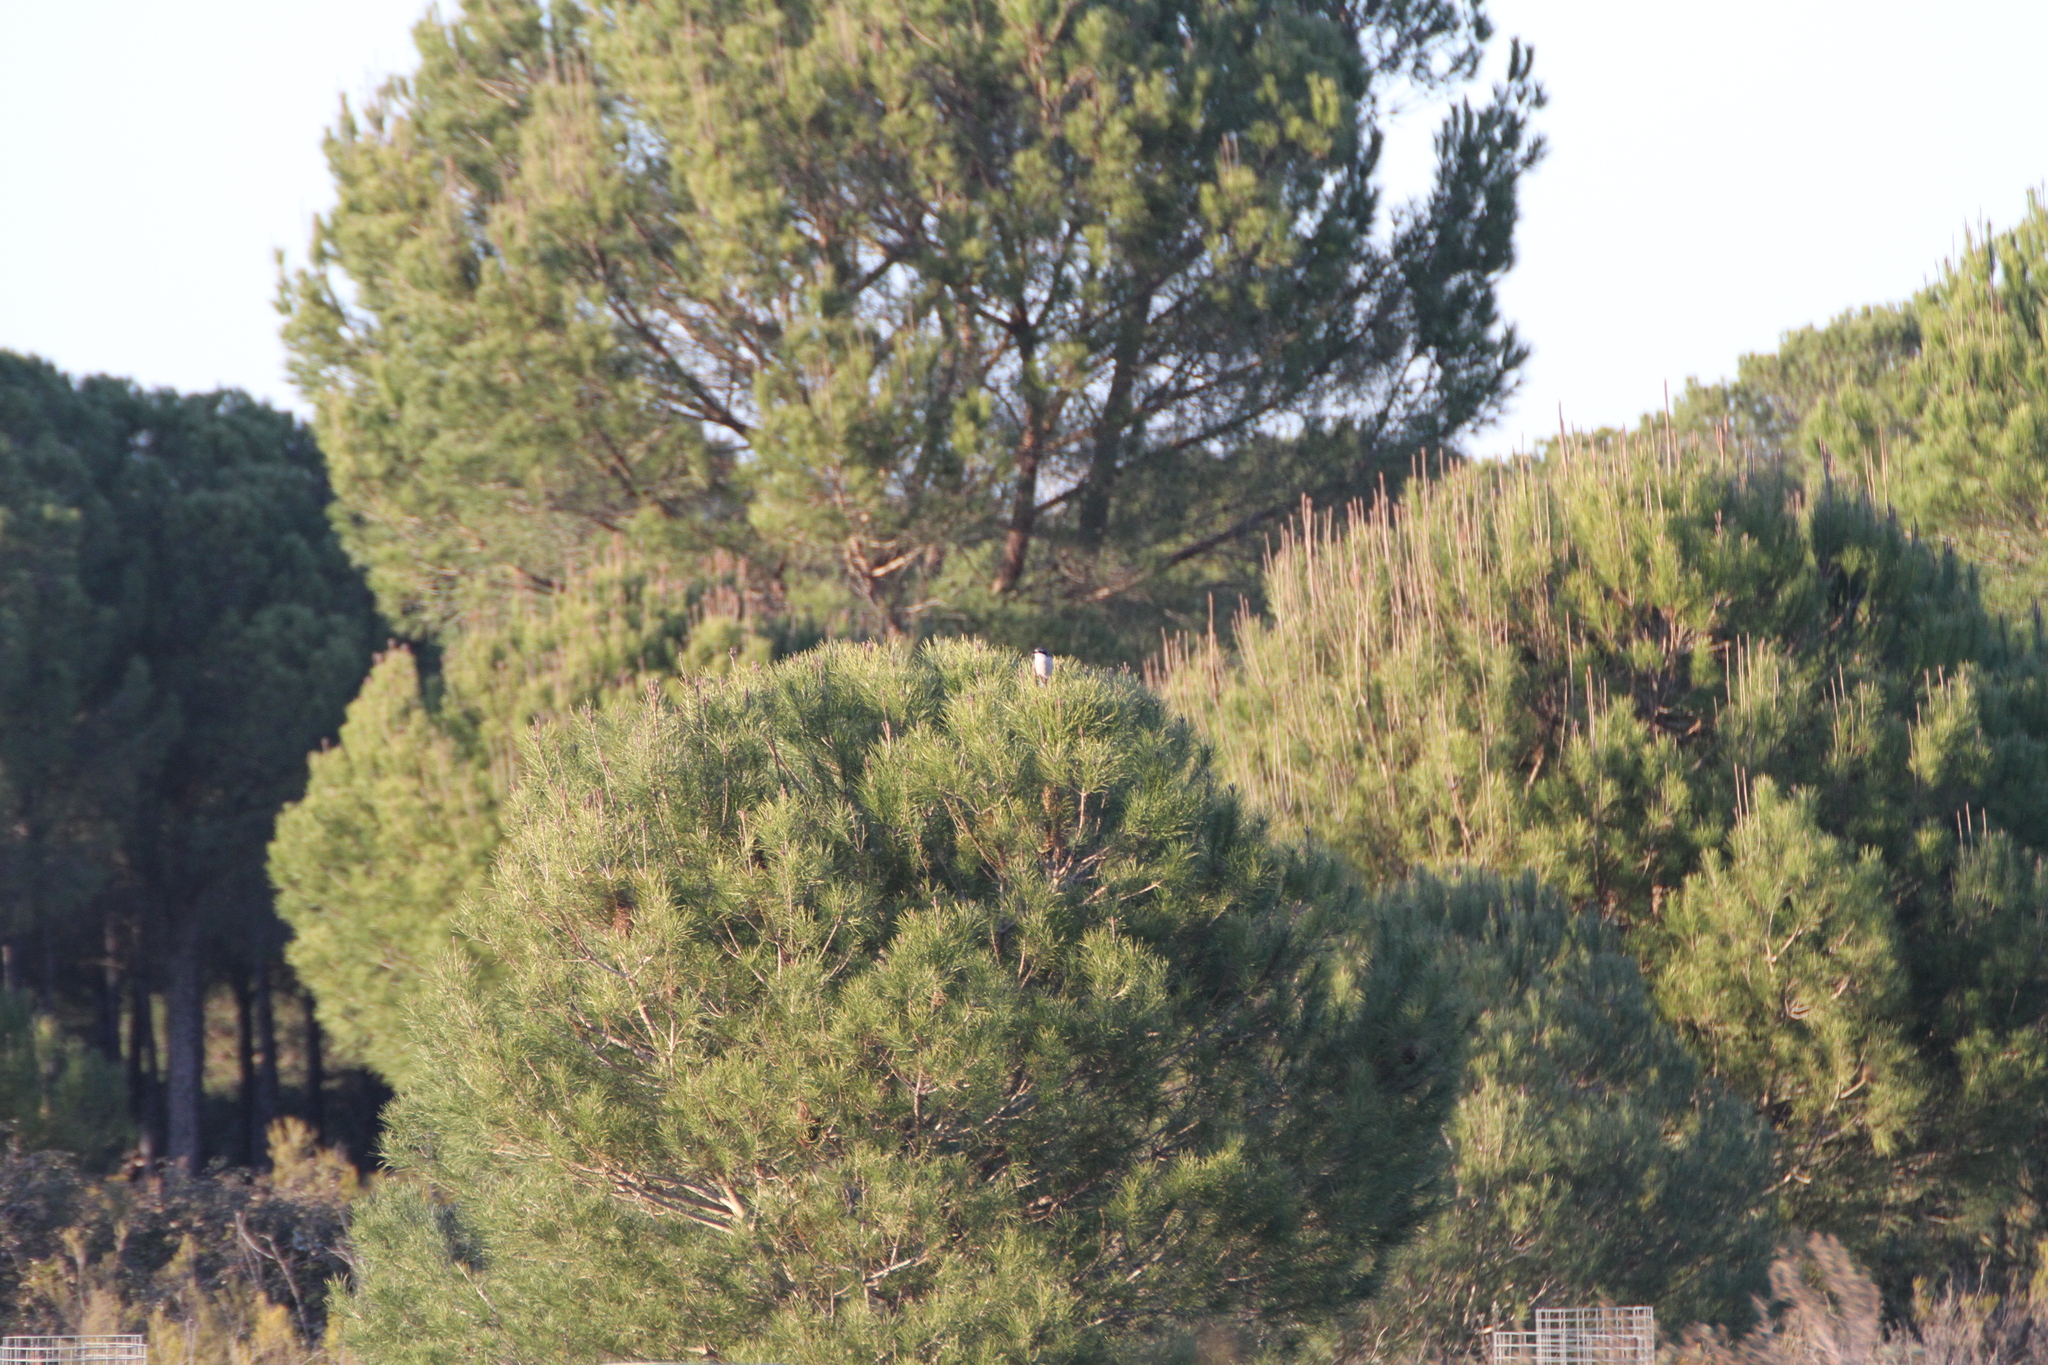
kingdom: Animalia
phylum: Chordata
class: Aves
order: Passeriformes
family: Laniidae
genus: Lanius
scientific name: Lanius meridionalis
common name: Iberian grey shrike
